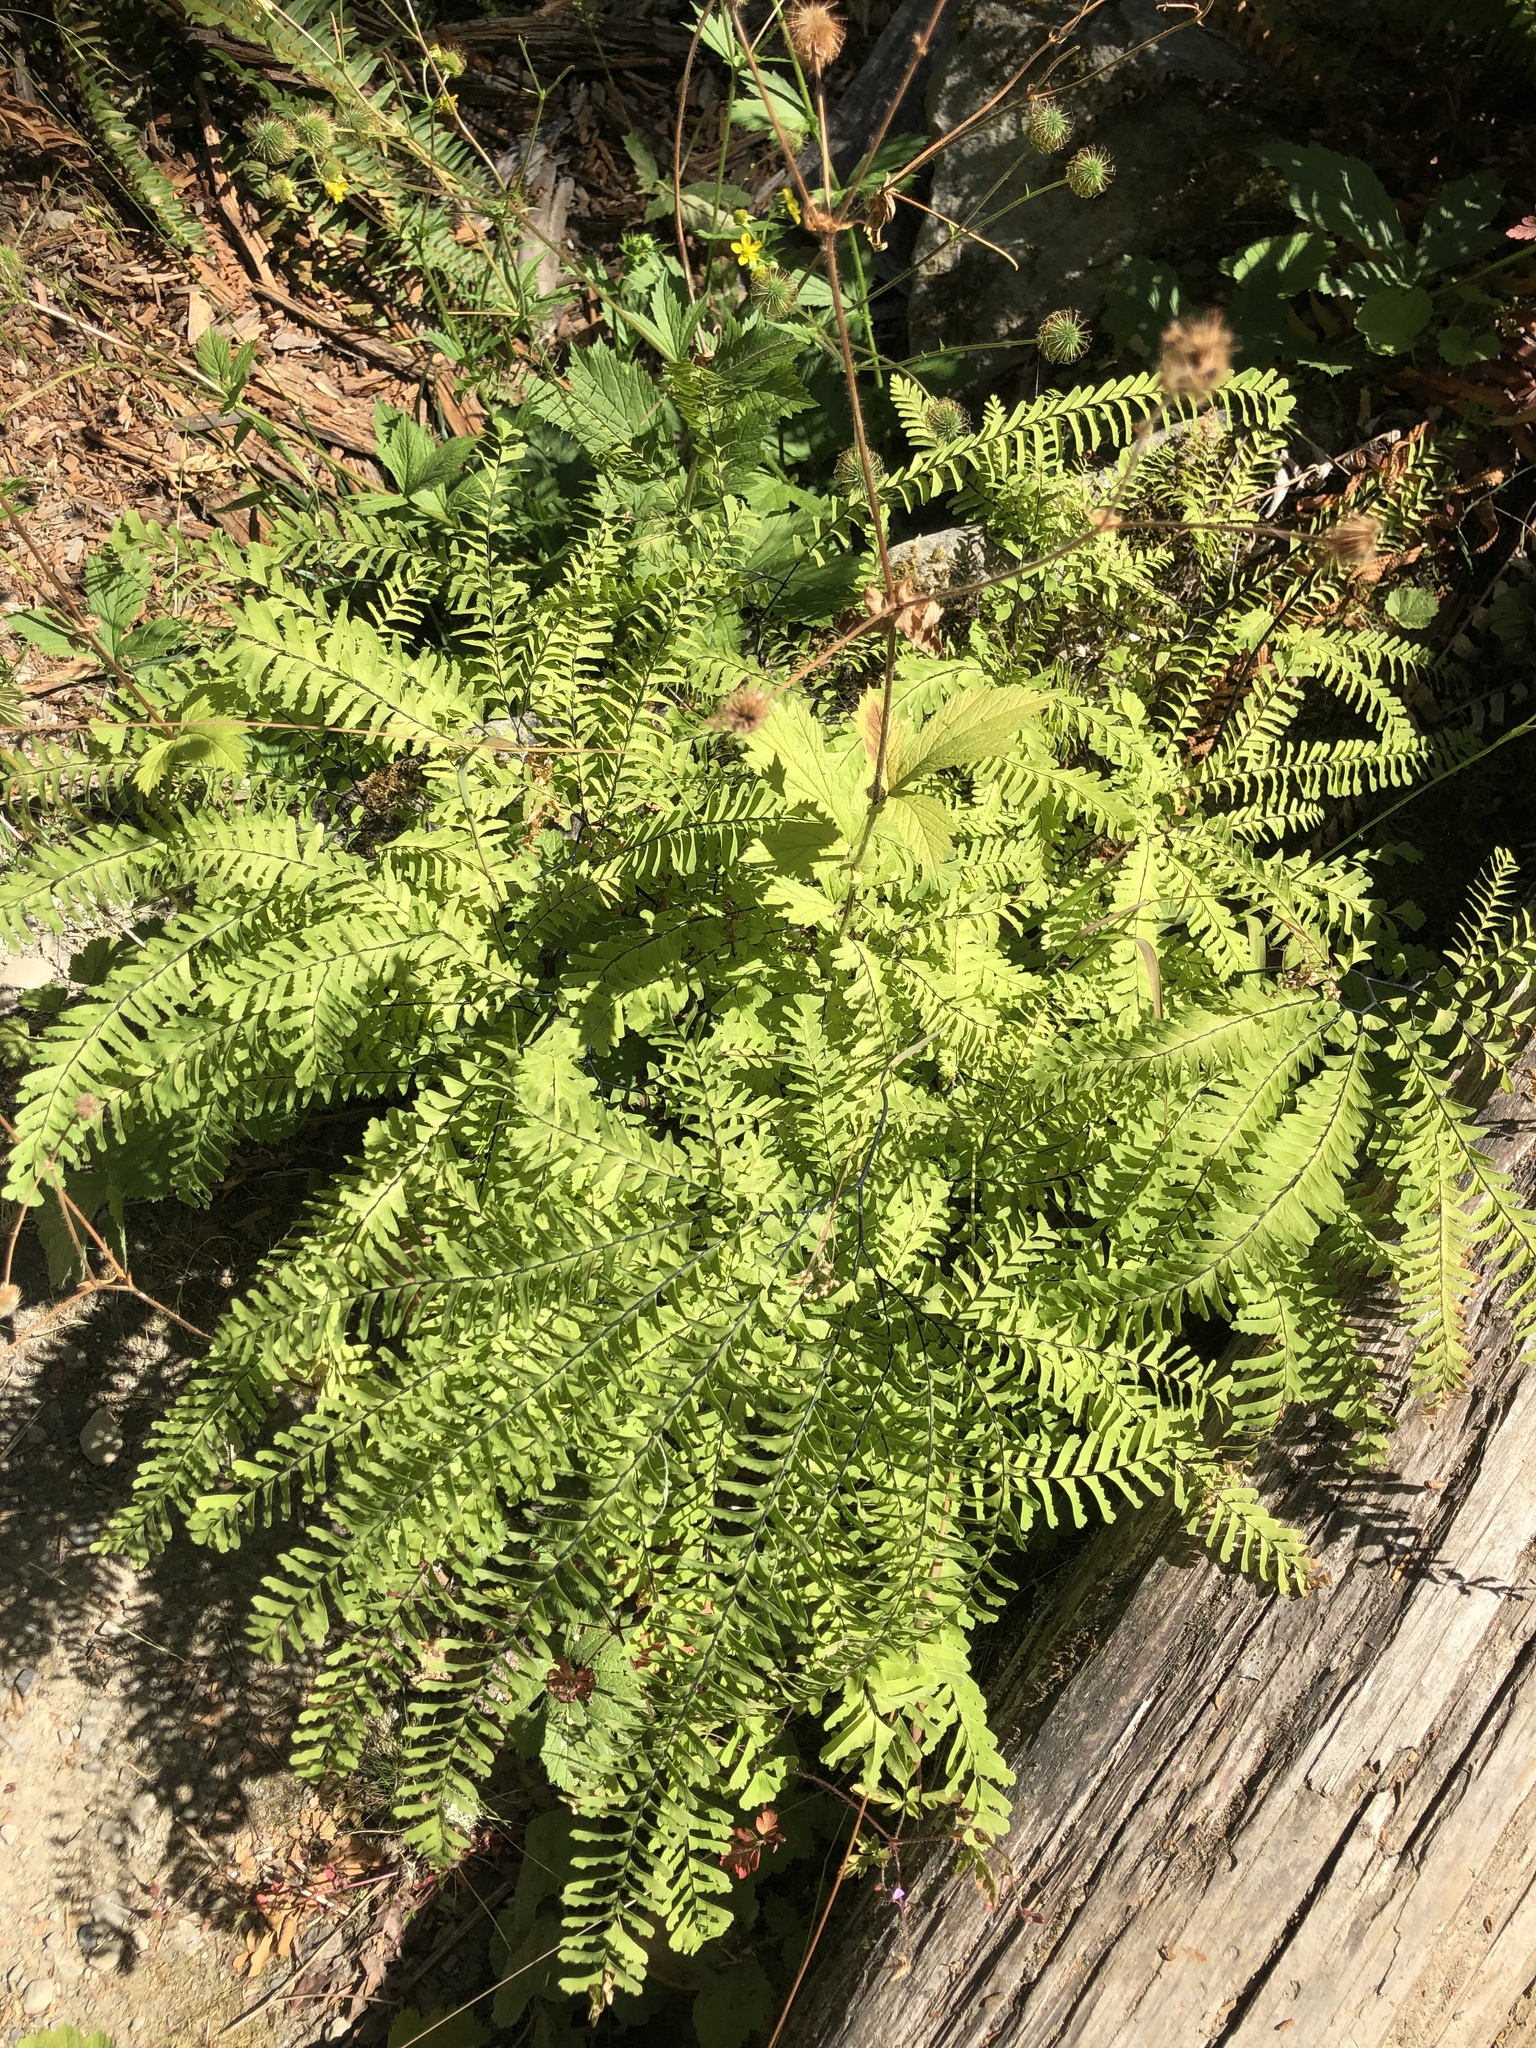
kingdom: Plantae
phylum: Tracheophyta
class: Polypodiopsida
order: Polypodiales
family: Pteridaceae
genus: Adiantum
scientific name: Adiantum aleuticum
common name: Aleutian maidenhair fern
